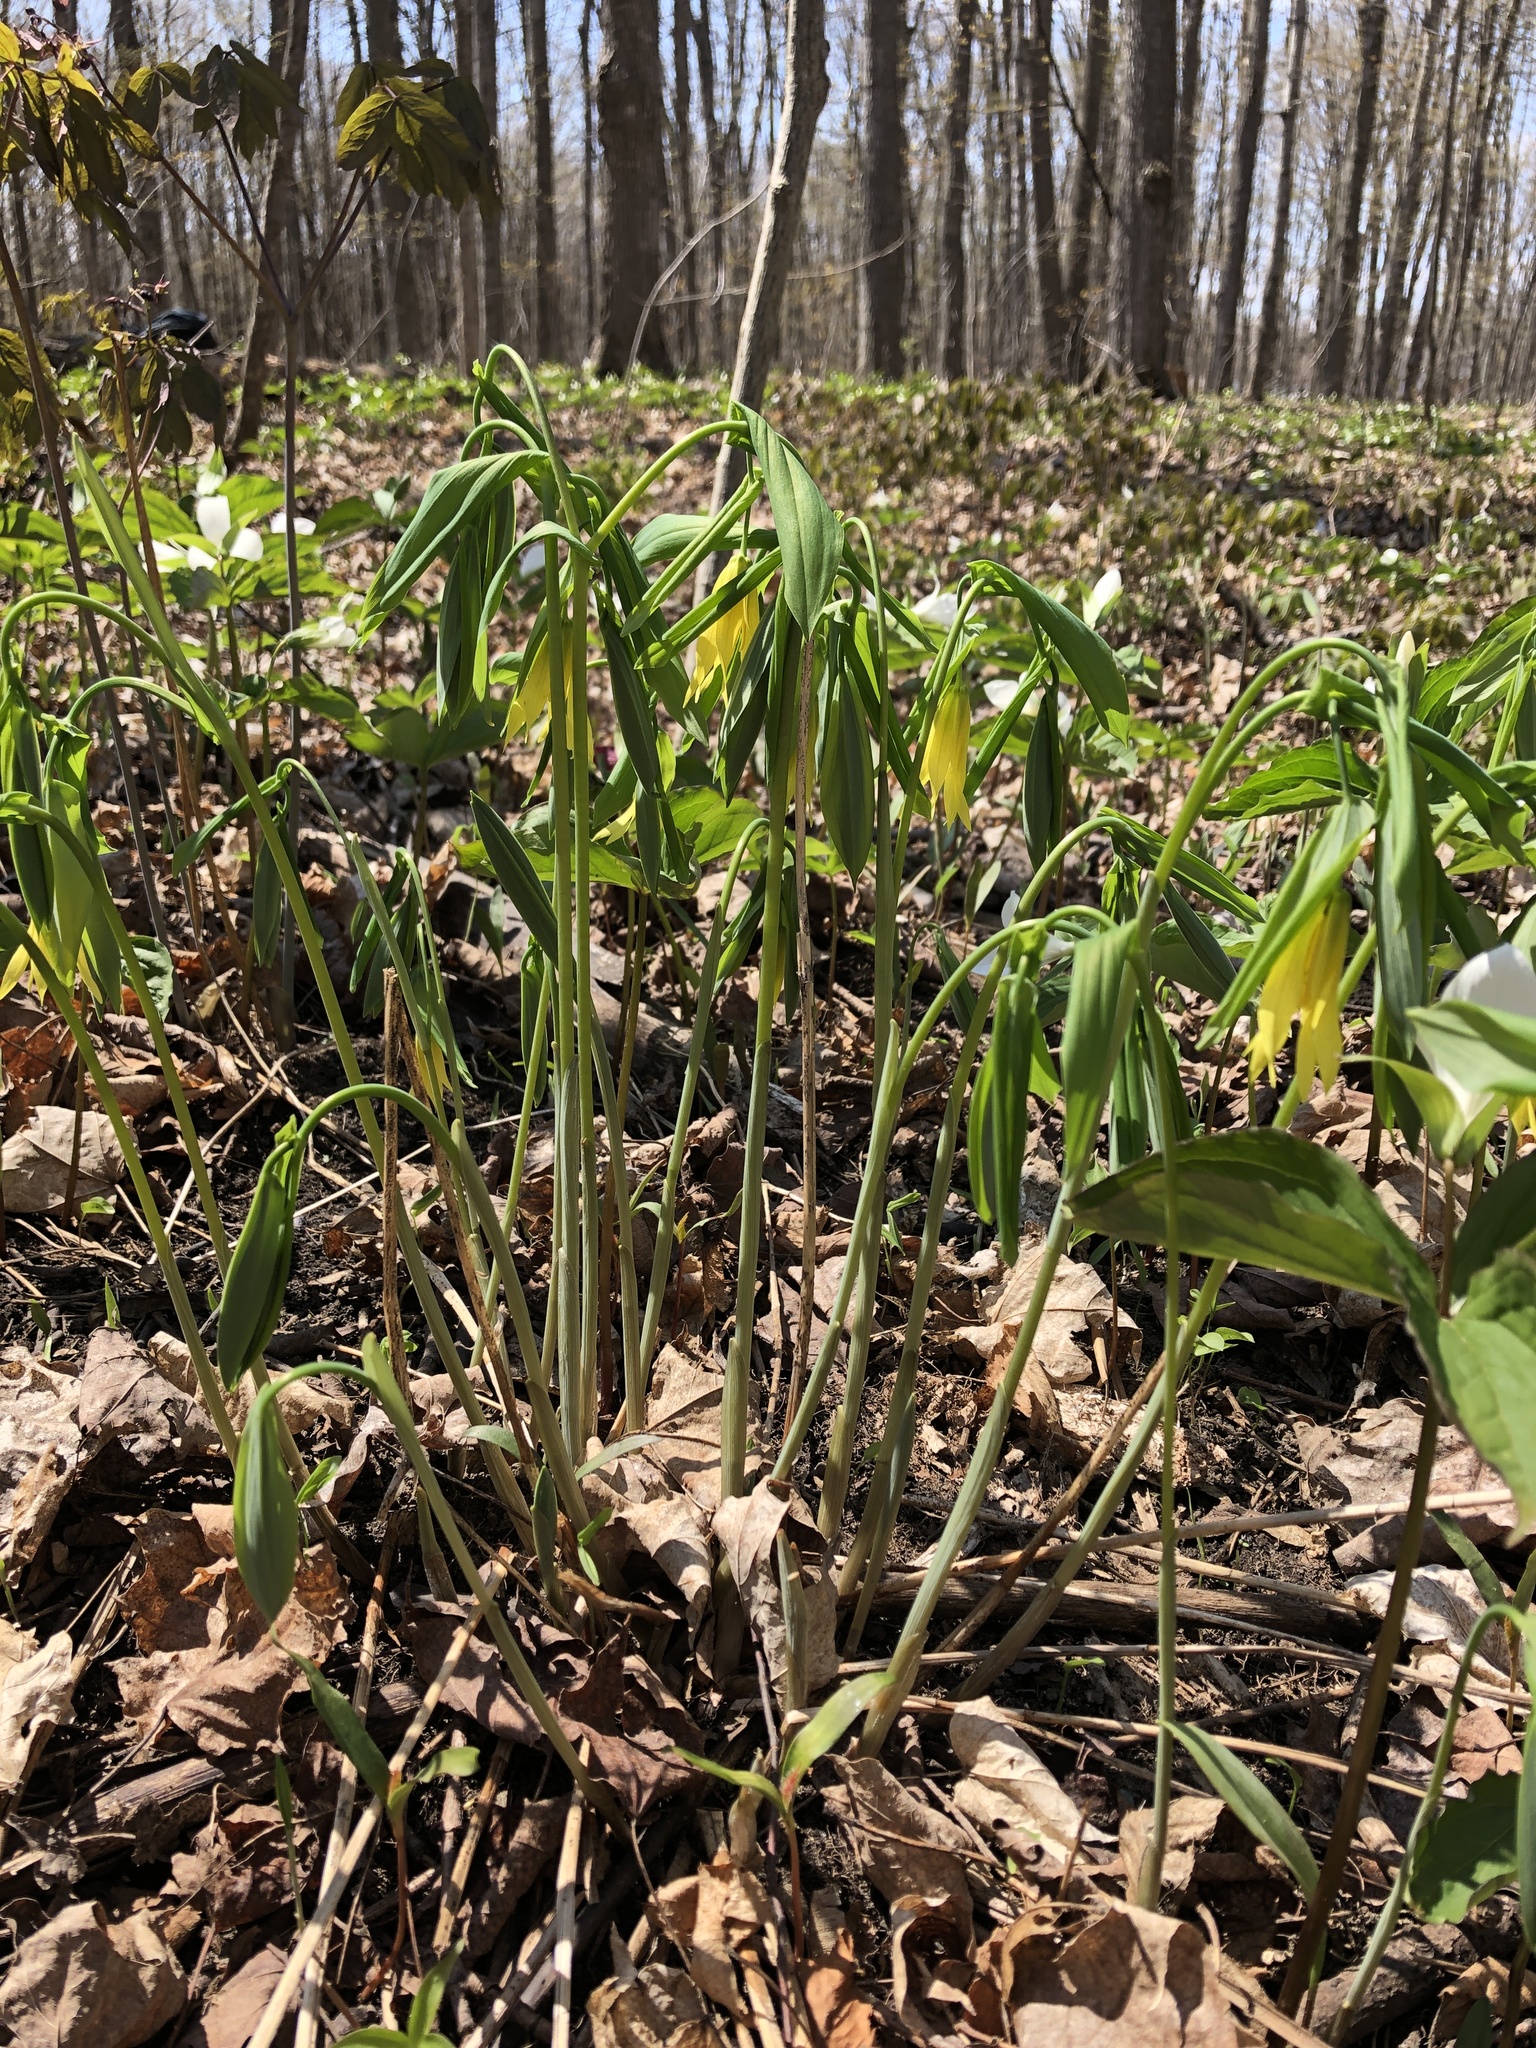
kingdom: Plantae
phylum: Tracheophyta
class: Liliopsida
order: Liliales
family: Colchicaceae
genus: Uvularia
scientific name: Uvularia grandiflora
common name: Bellwort
